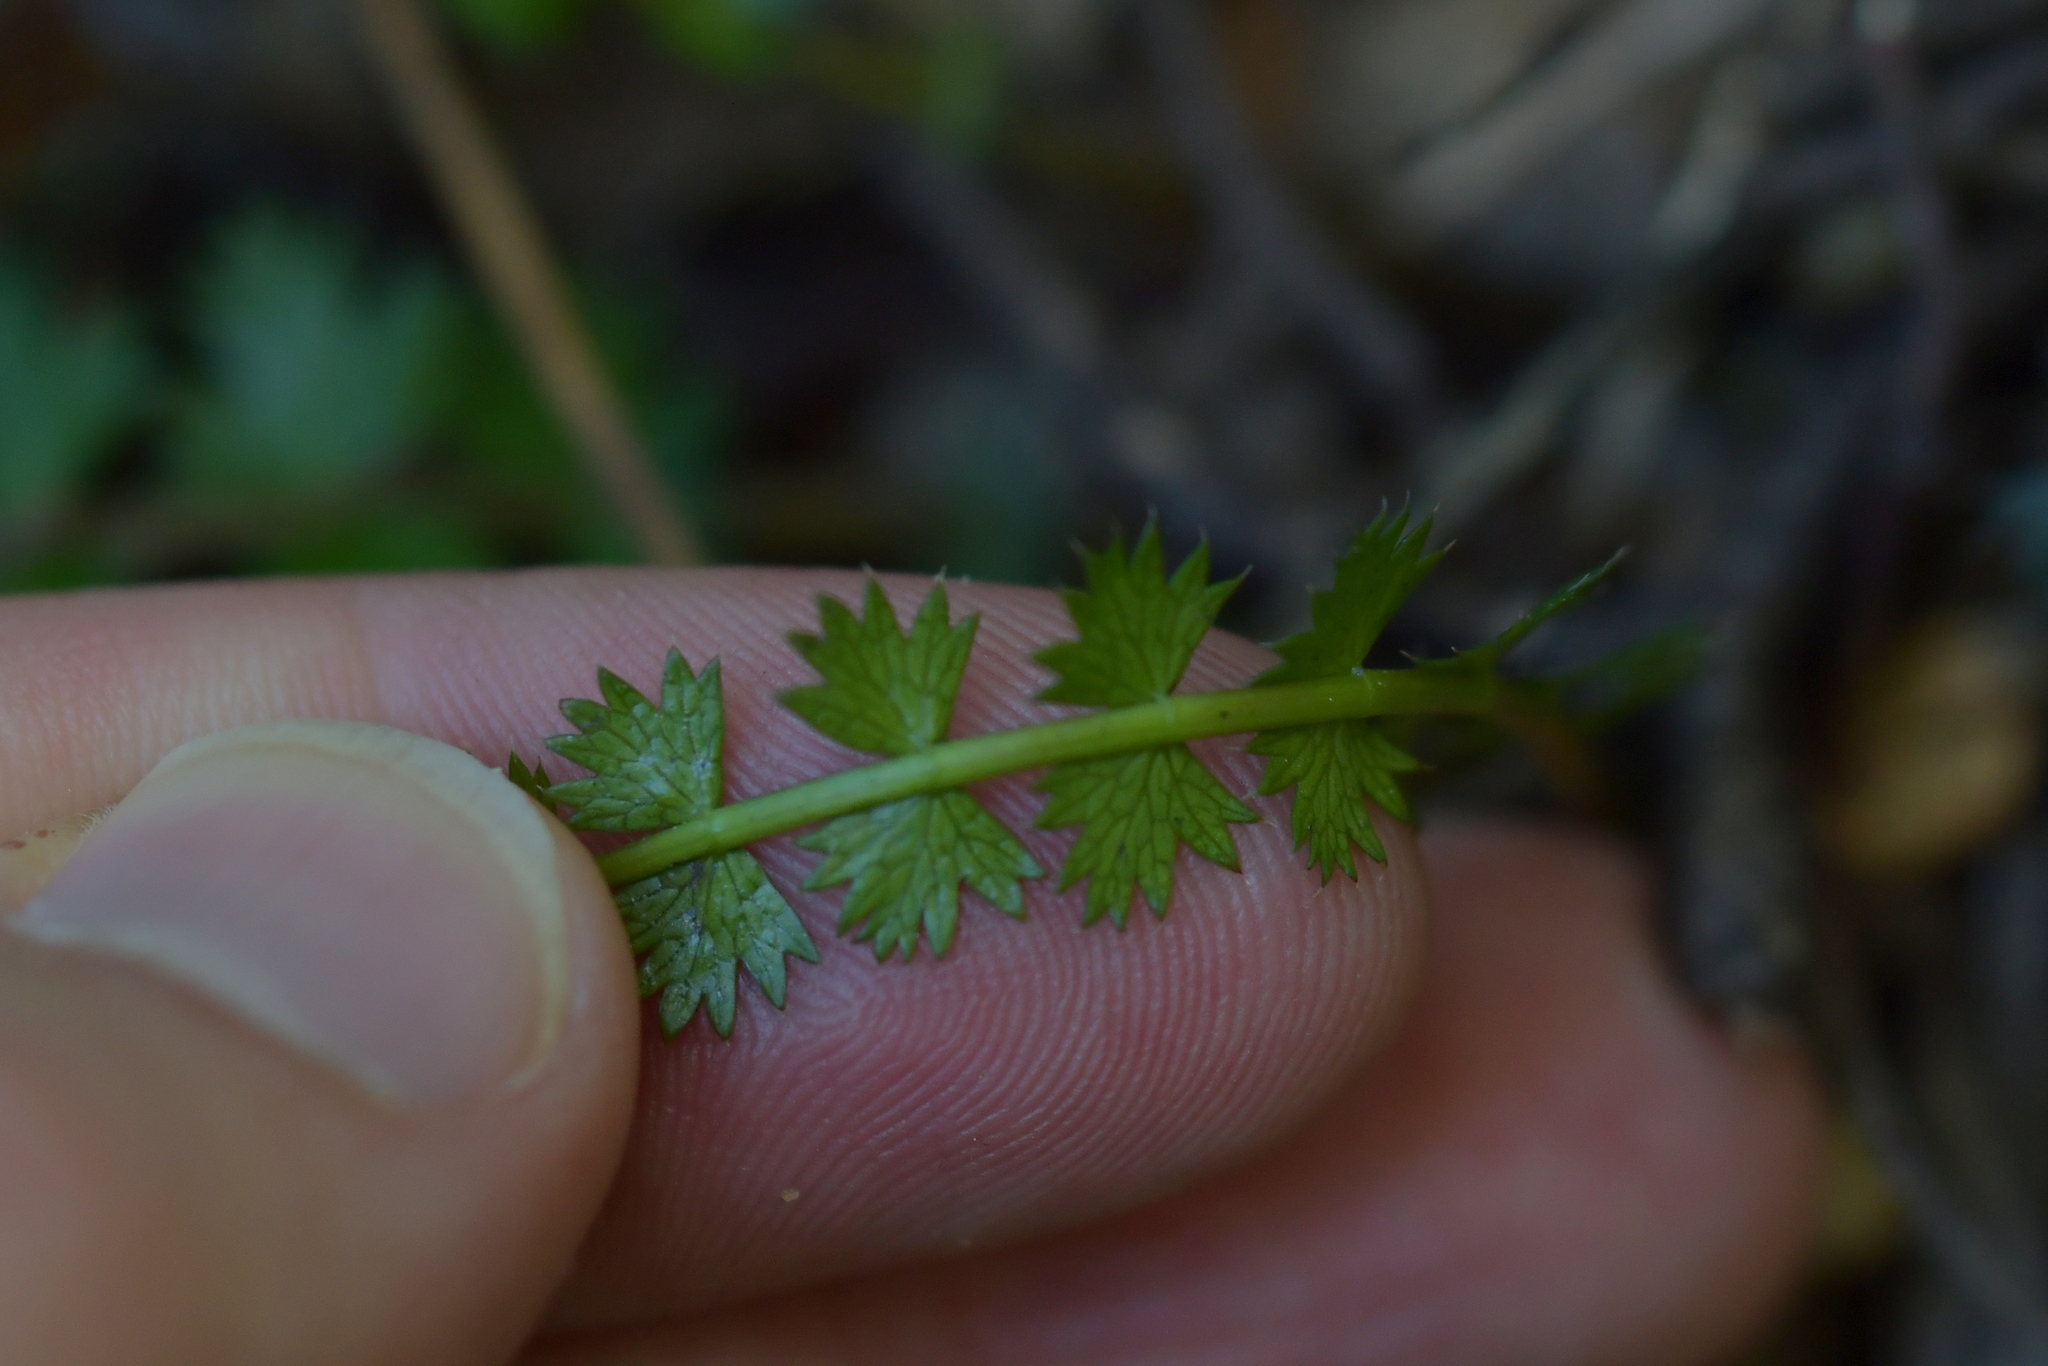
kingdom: Plantae
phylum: Tracheophyta
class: Magnoliopsida
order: Apiales
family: Apiaceae
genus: Anisotome
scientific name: Anisotome aromatica
